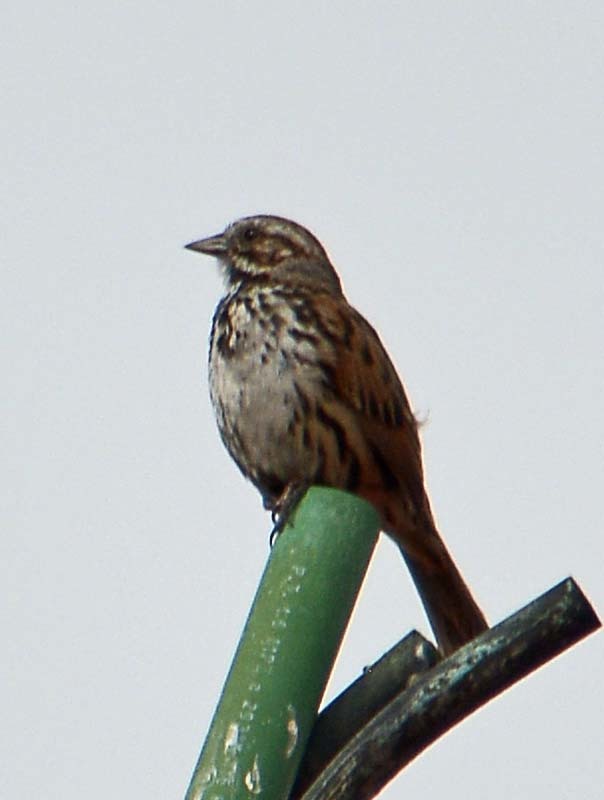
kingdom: Animalia
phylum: Chordata
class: Aves
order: Passeriformes
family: Passerellidae
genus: Melospiza
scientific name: Melospiza melodia
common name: Song sparrow
